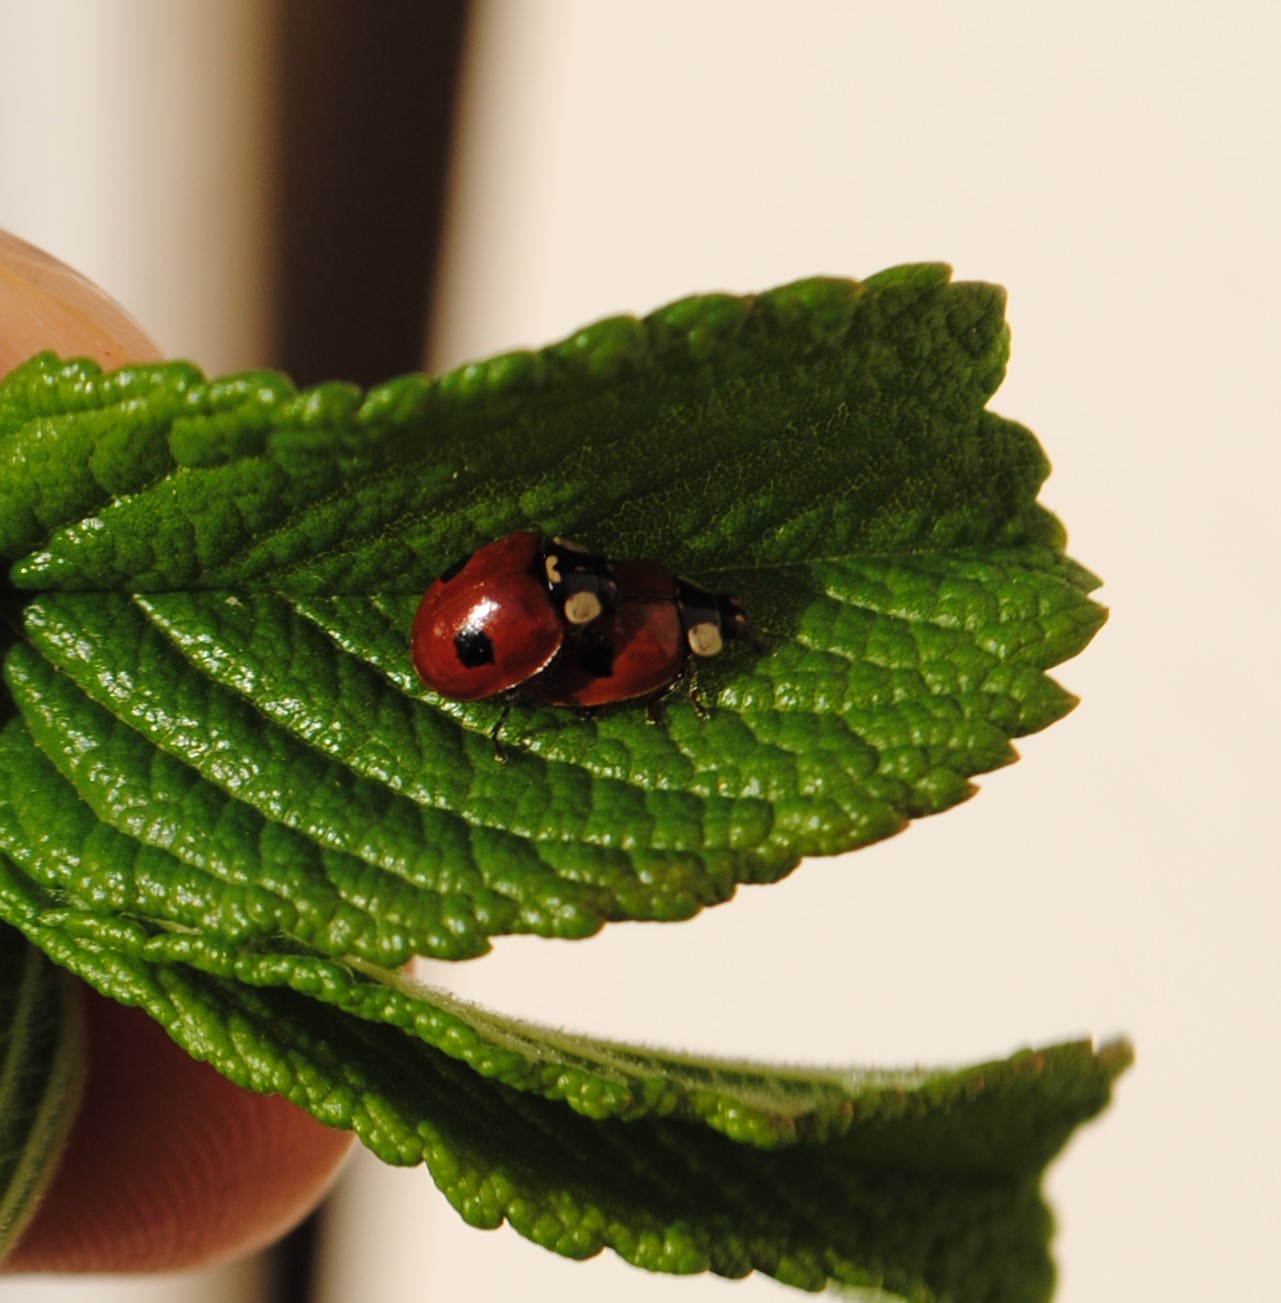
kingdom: Animalia
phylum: Arthropoda
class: Insecta
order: Coleoptera
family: Coccinellidae
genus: Adalia
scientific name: Adalia bipunctata
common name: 2-spot ladybird
